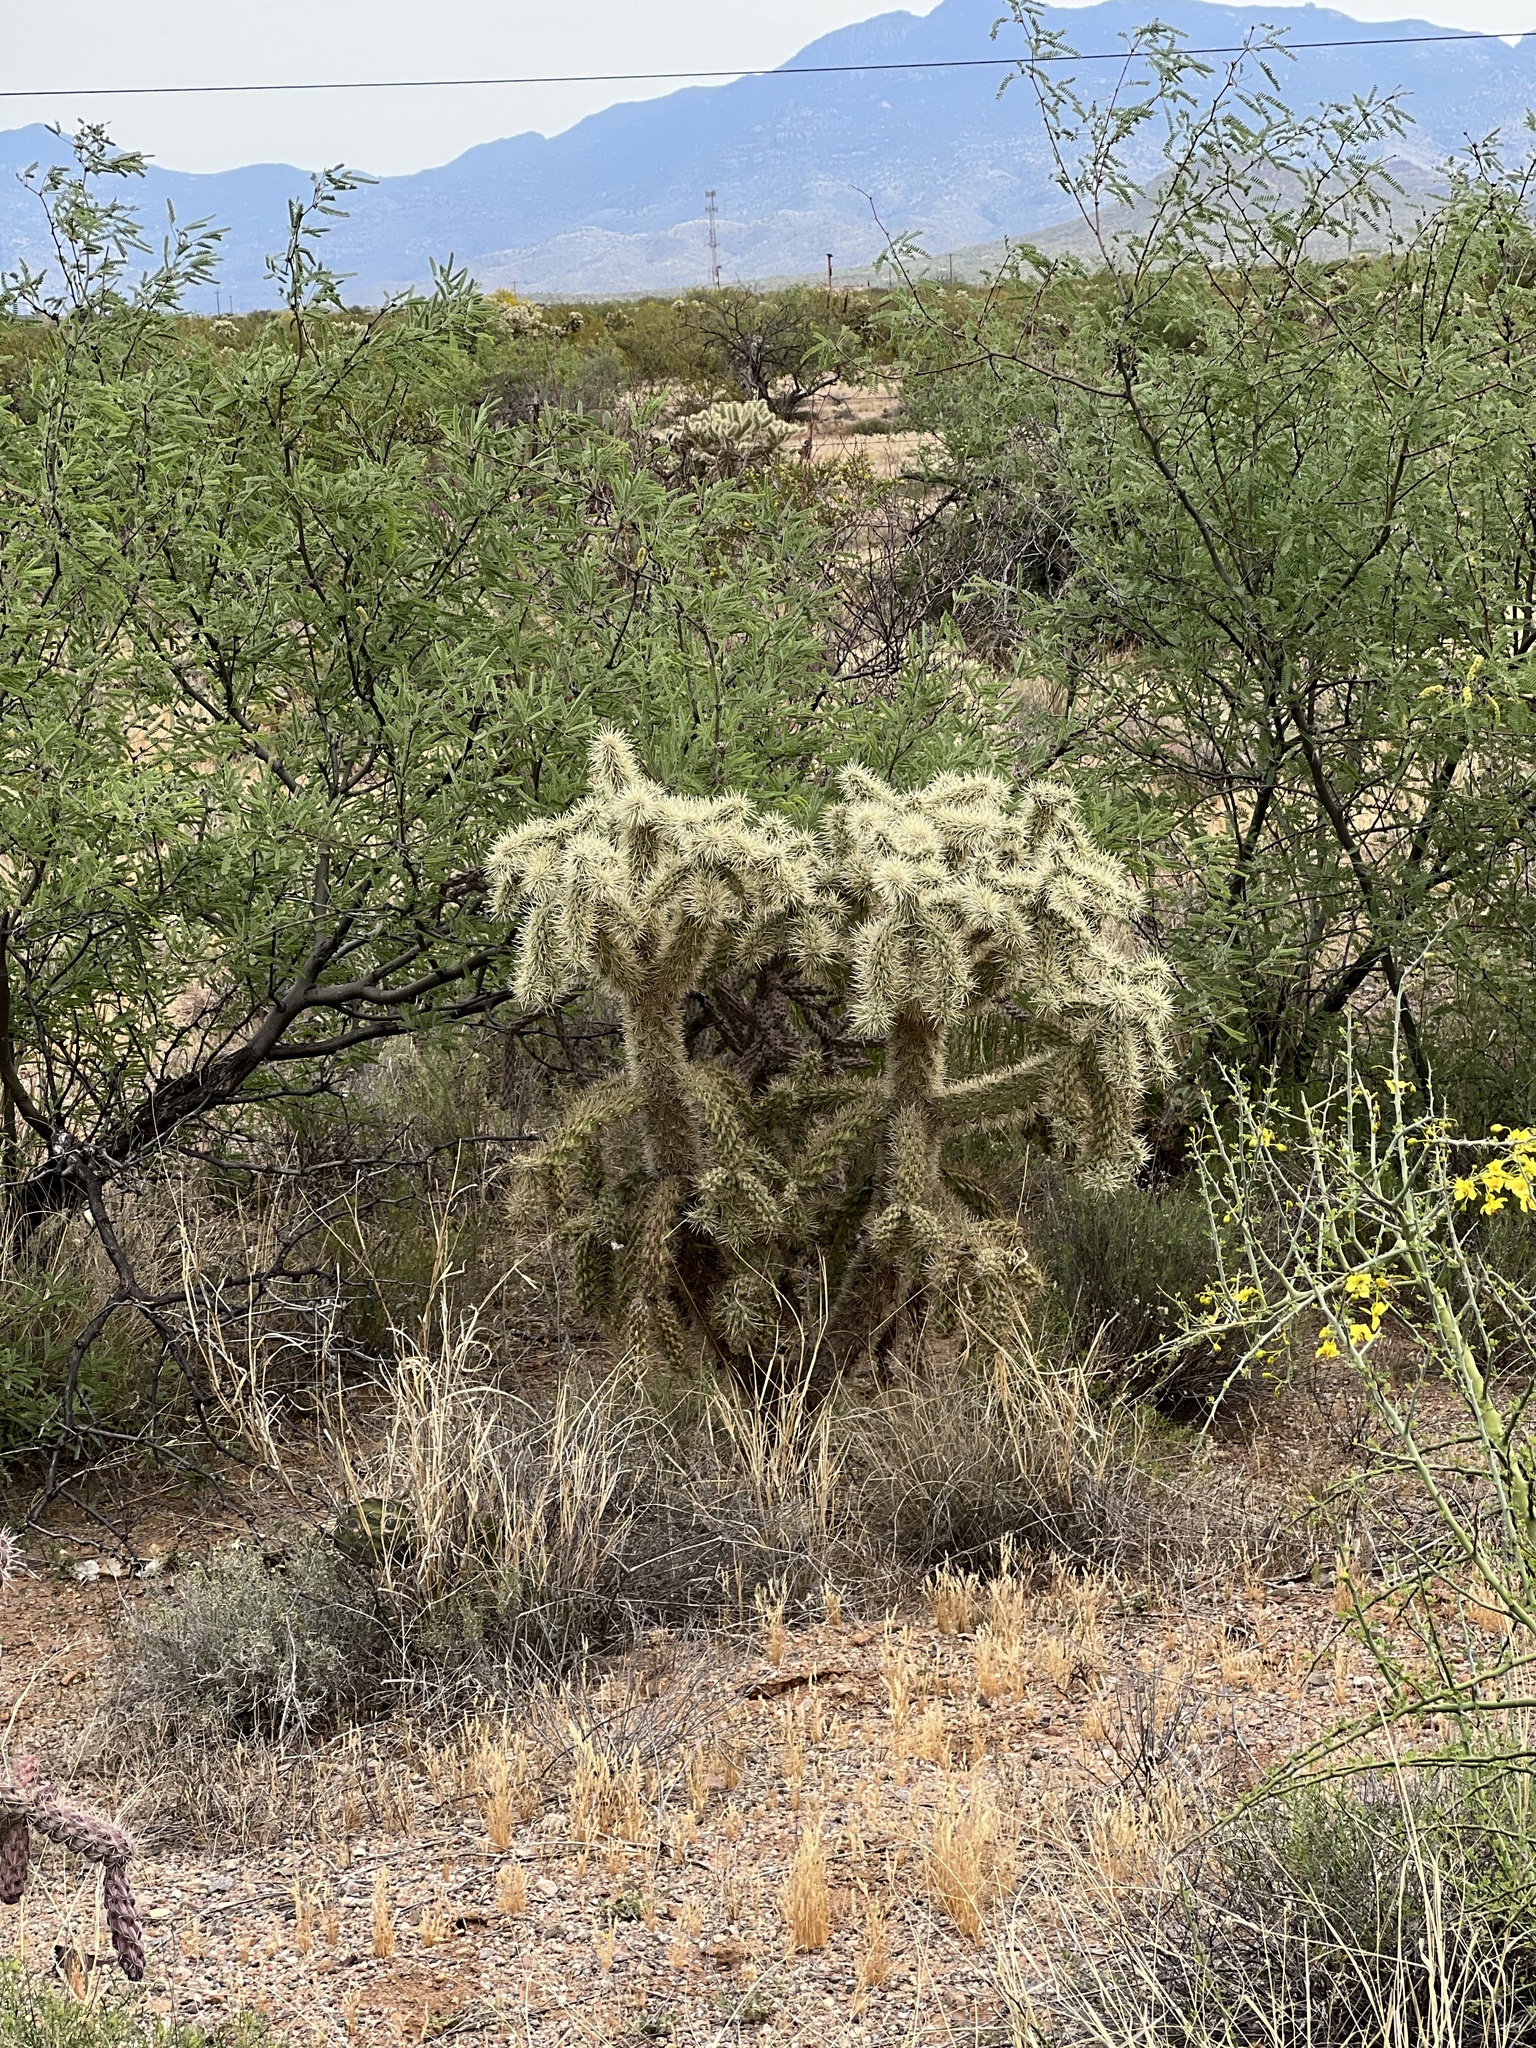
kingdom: Plantae
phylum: Tracheophyta
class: Magnoliopsida
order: Caryophyllales
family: Cactaceae
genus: Cylindropuntia
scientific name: Cylindropuntia fulgida
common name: Jumping cholla
